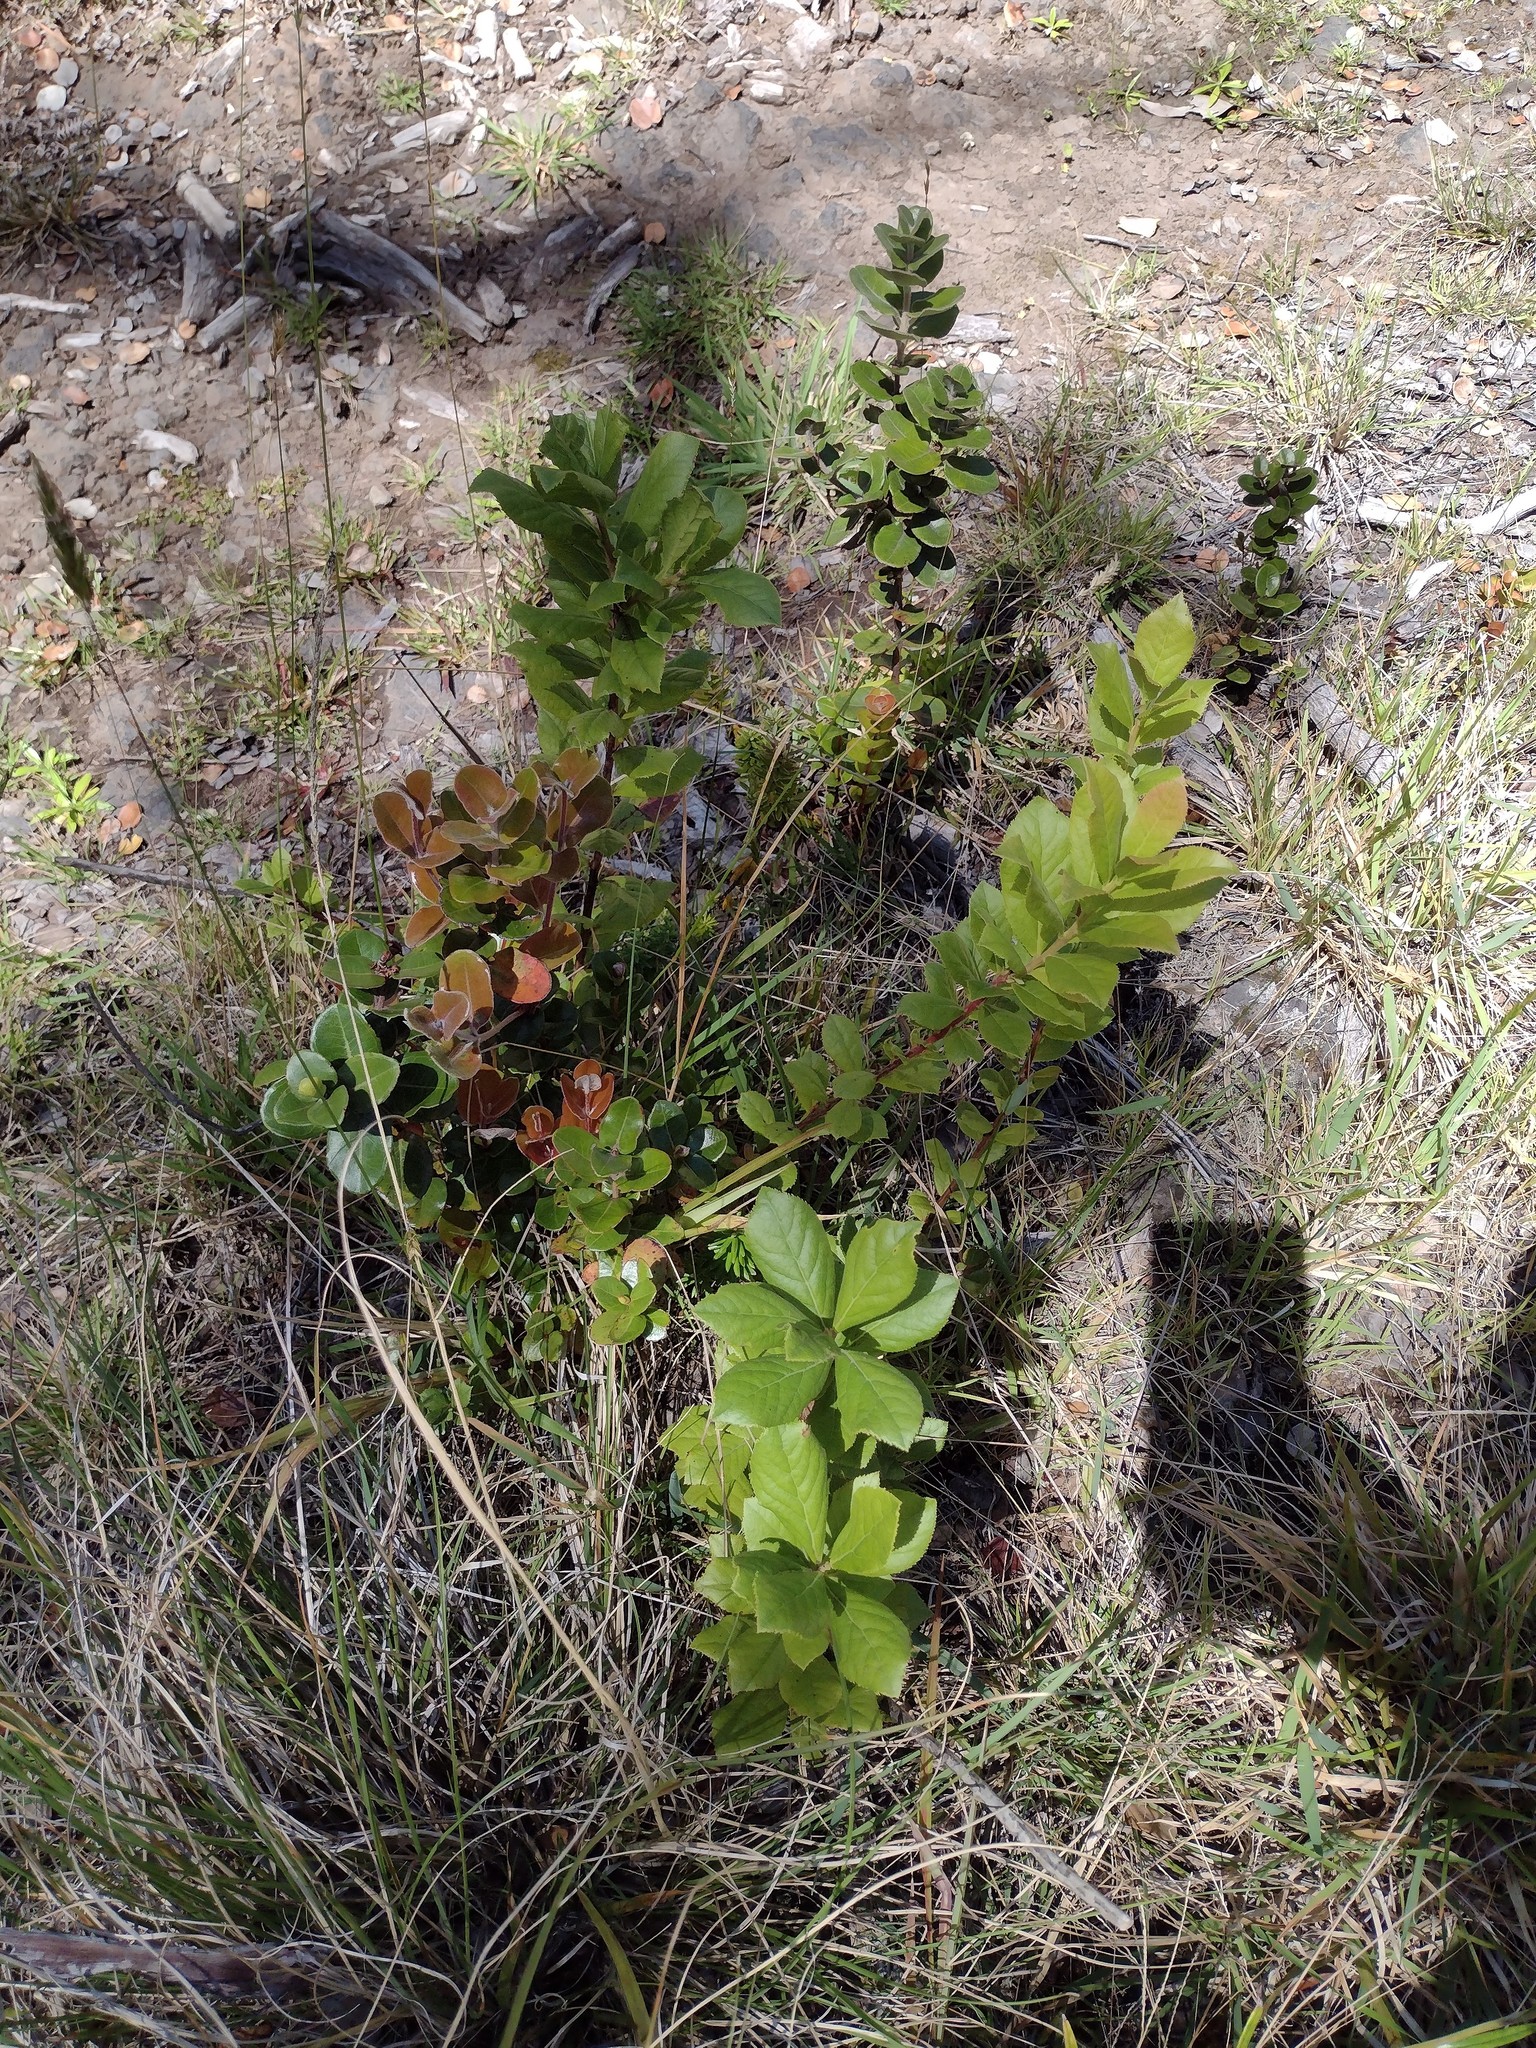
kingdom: Plantae
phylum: Tracheophyta
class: Magnoliopsida
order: Ericales
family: Ericaceae
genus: Vaccinium
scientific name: Vaccinium calycinum
